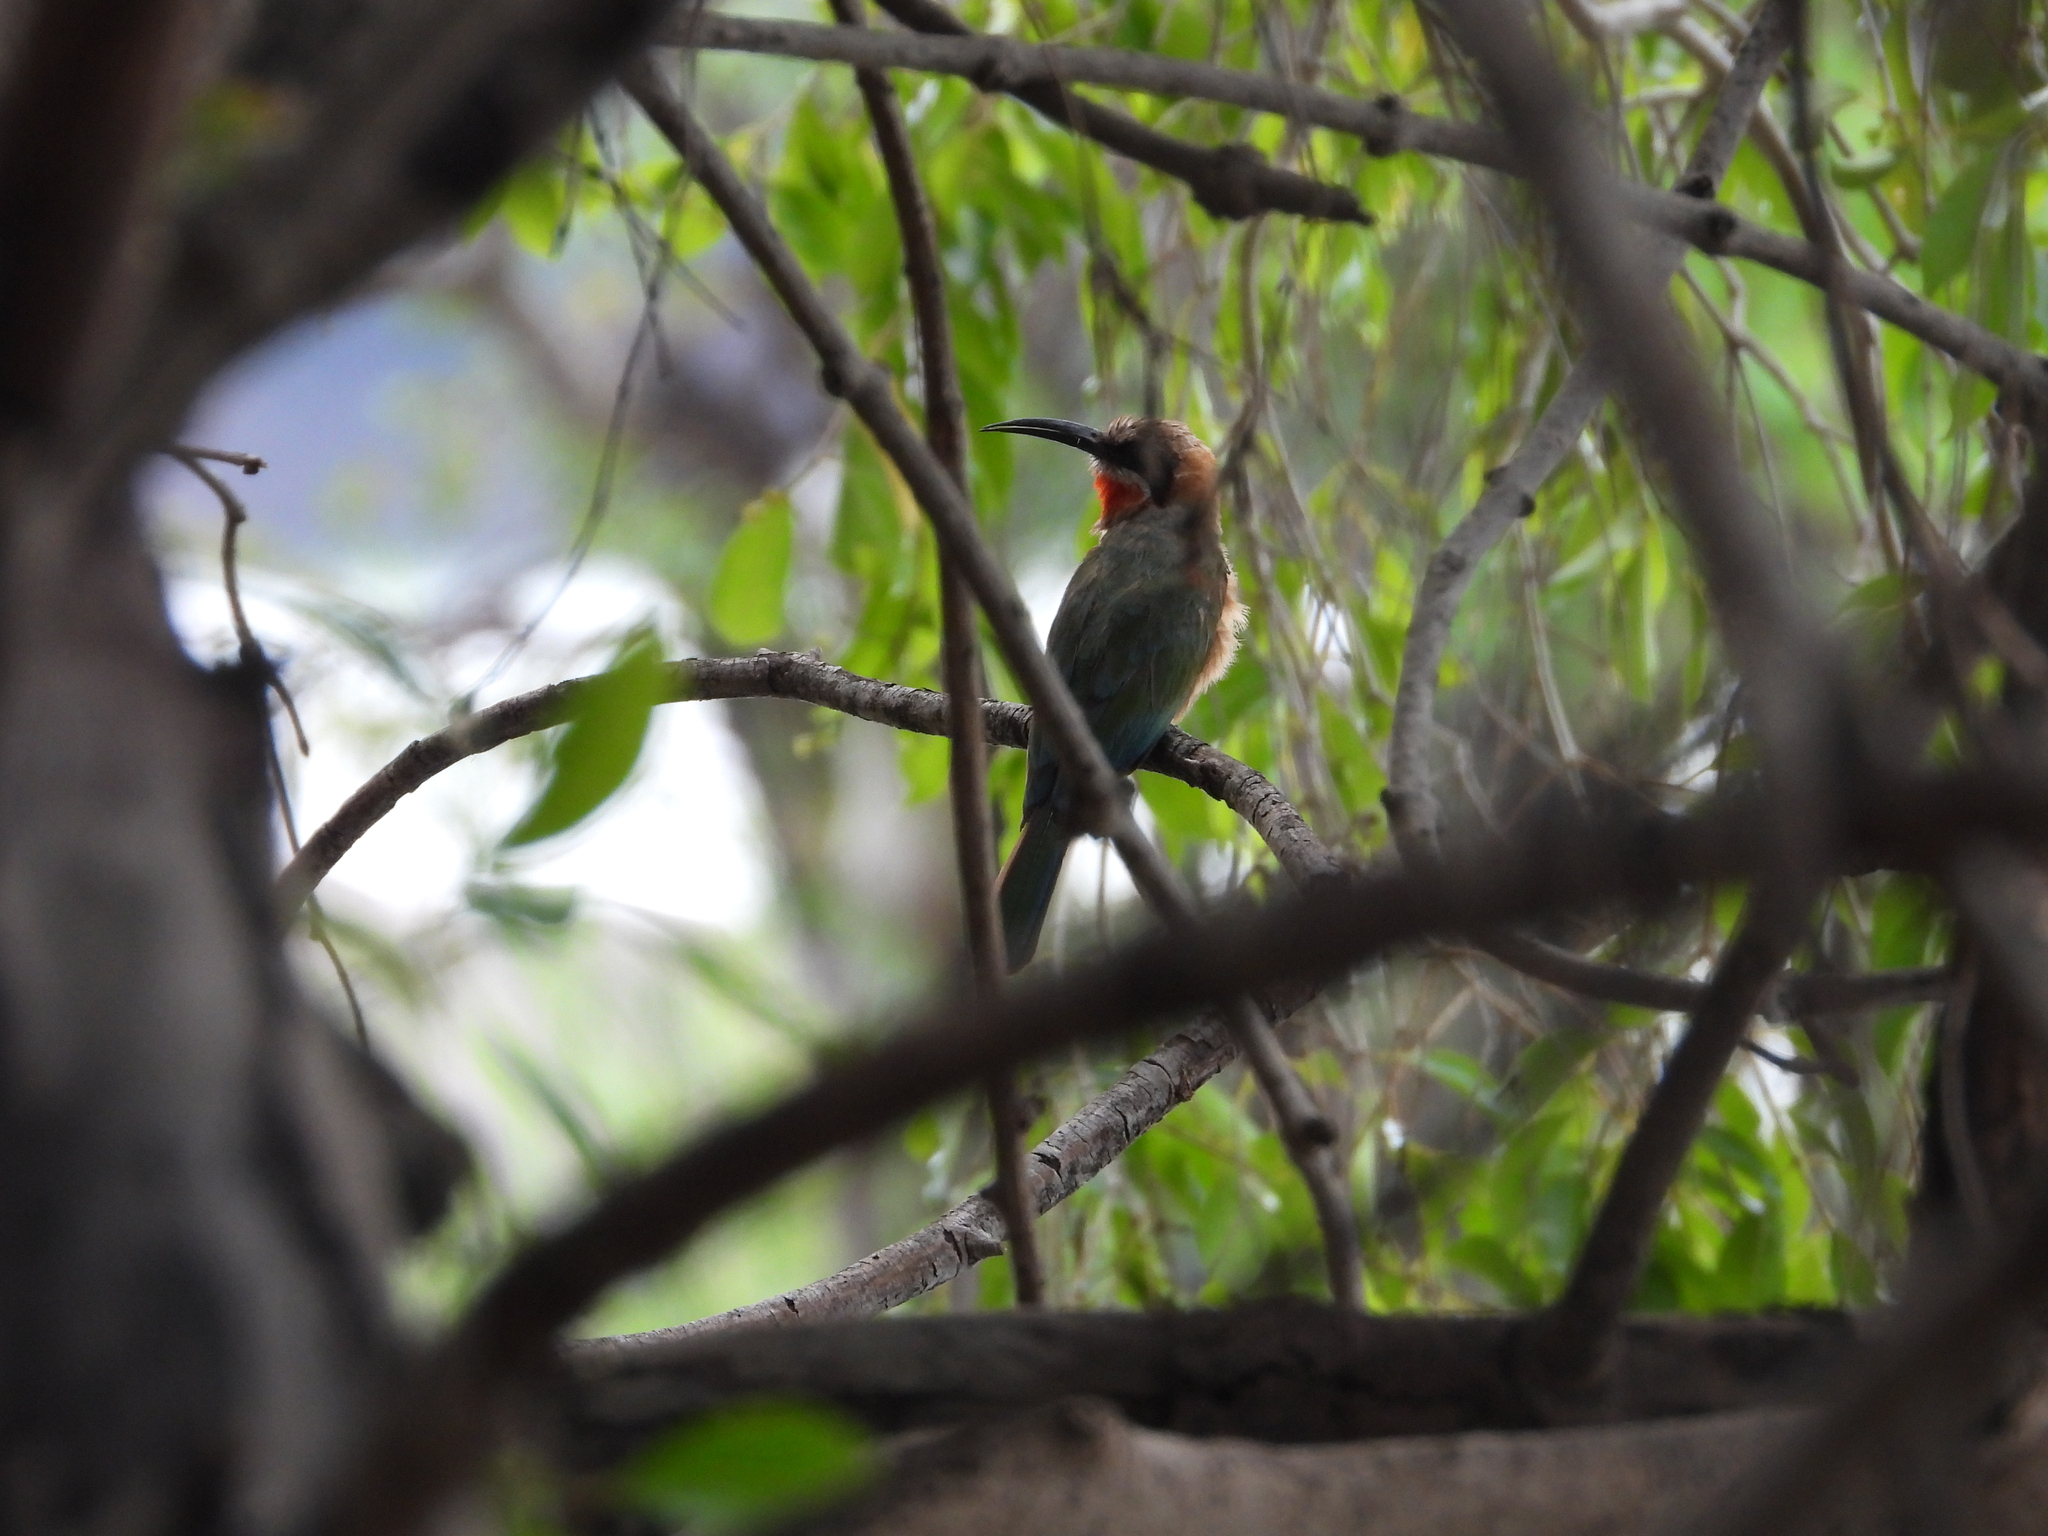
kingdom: Animalia
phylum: Chordata
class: Aves
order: Coraciiformes
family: Meropidae
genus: Merops
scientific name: Merops bullockoides
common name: White-fronted bee-eater
